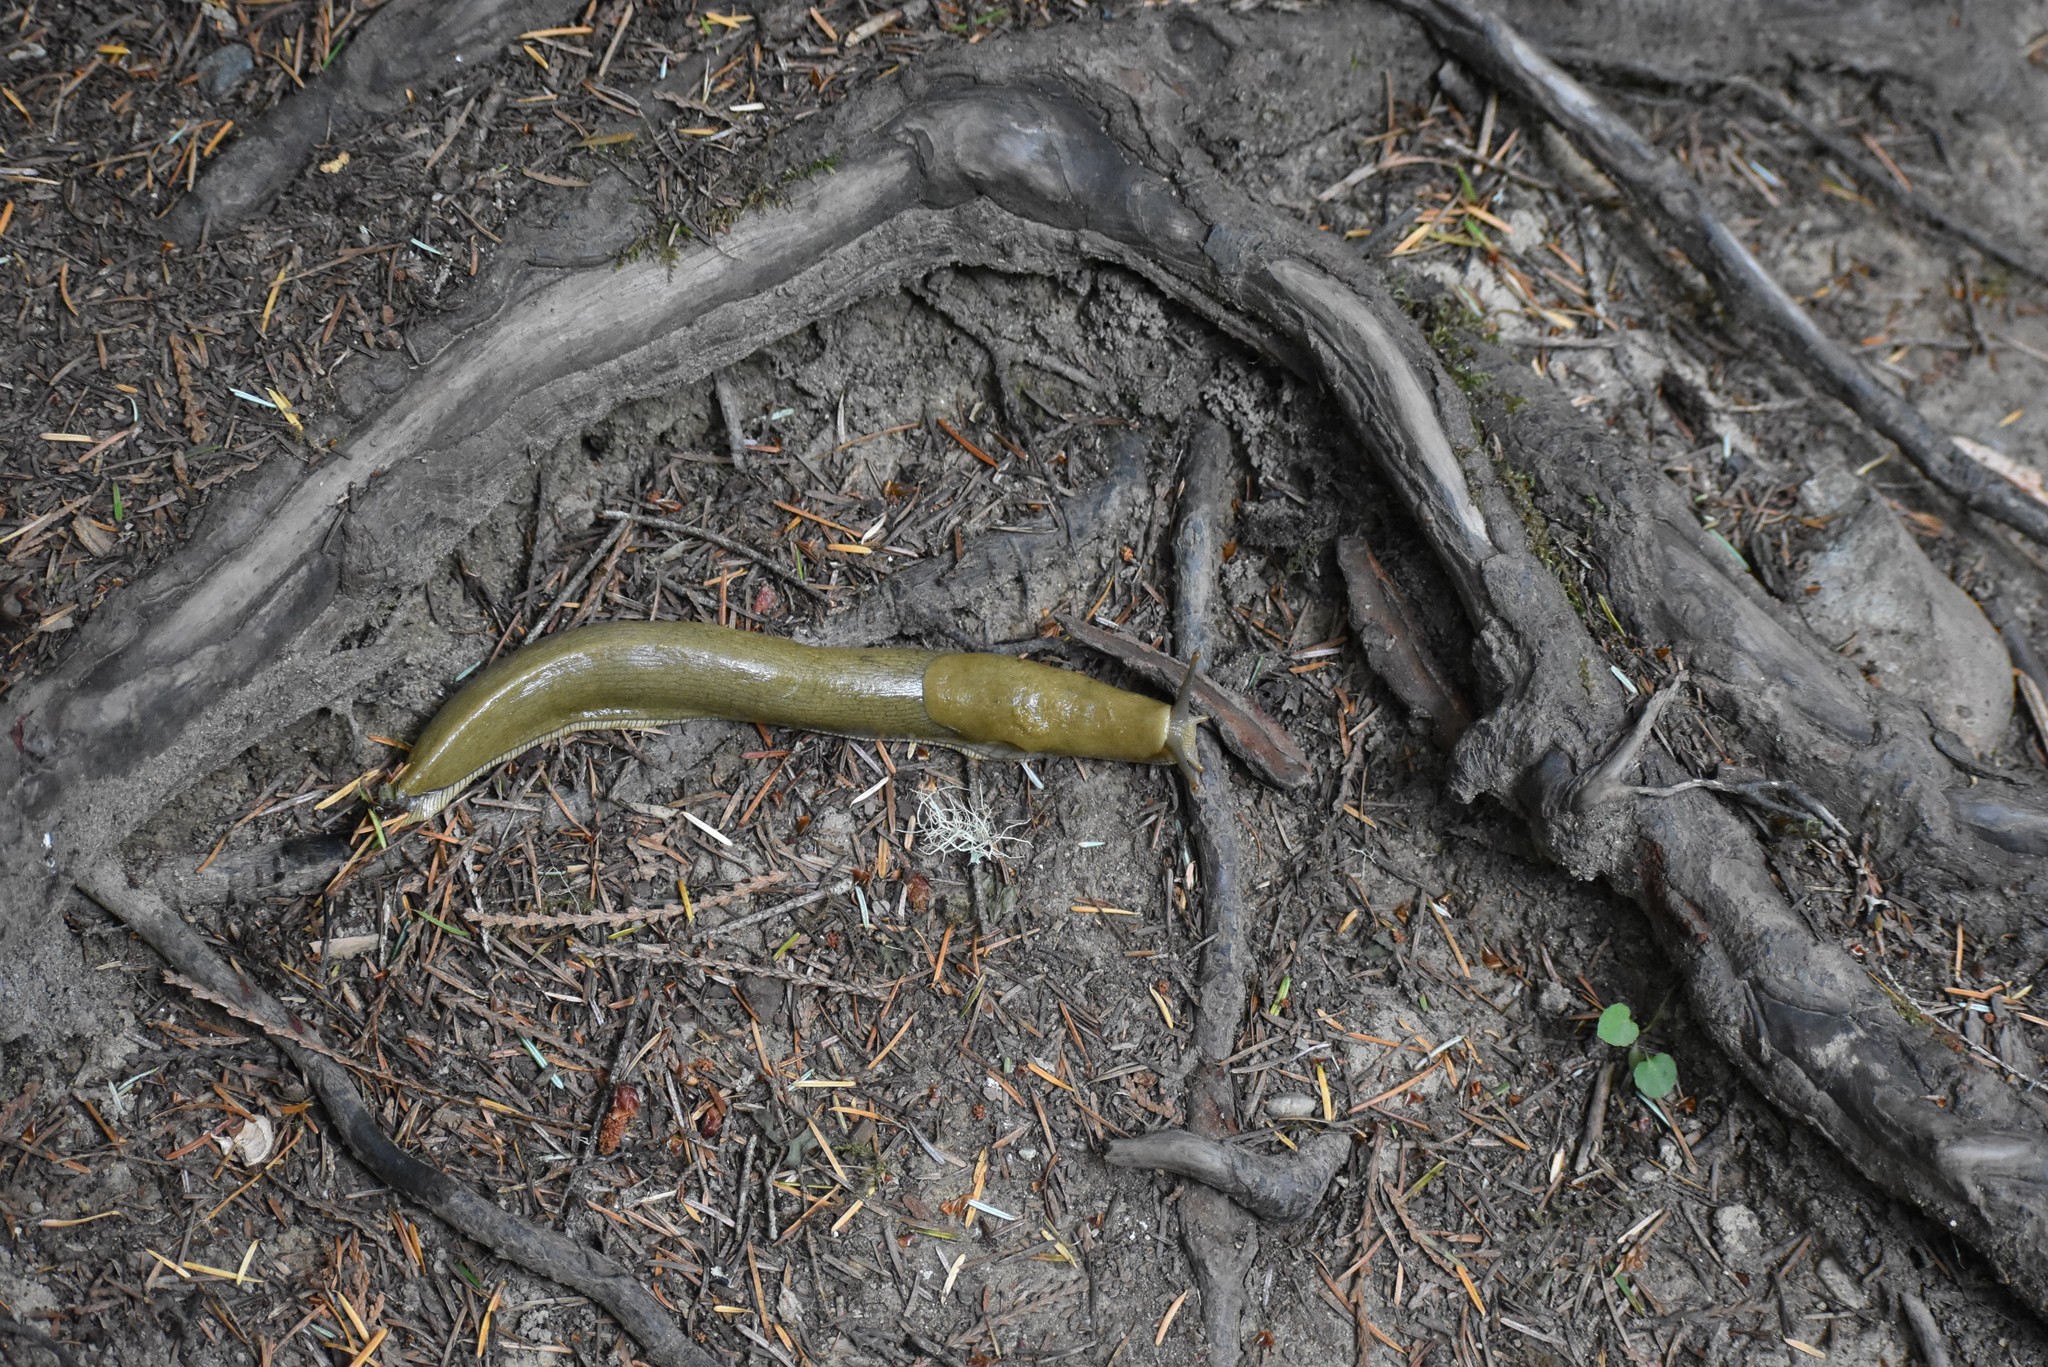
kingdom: Animalia
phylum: Mollusca
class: Gastropoda
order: Stylommatophora
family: Ariolimacidae
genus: Ariolimax
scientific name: Ariolimax columbianus
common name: Pacific banana slug
